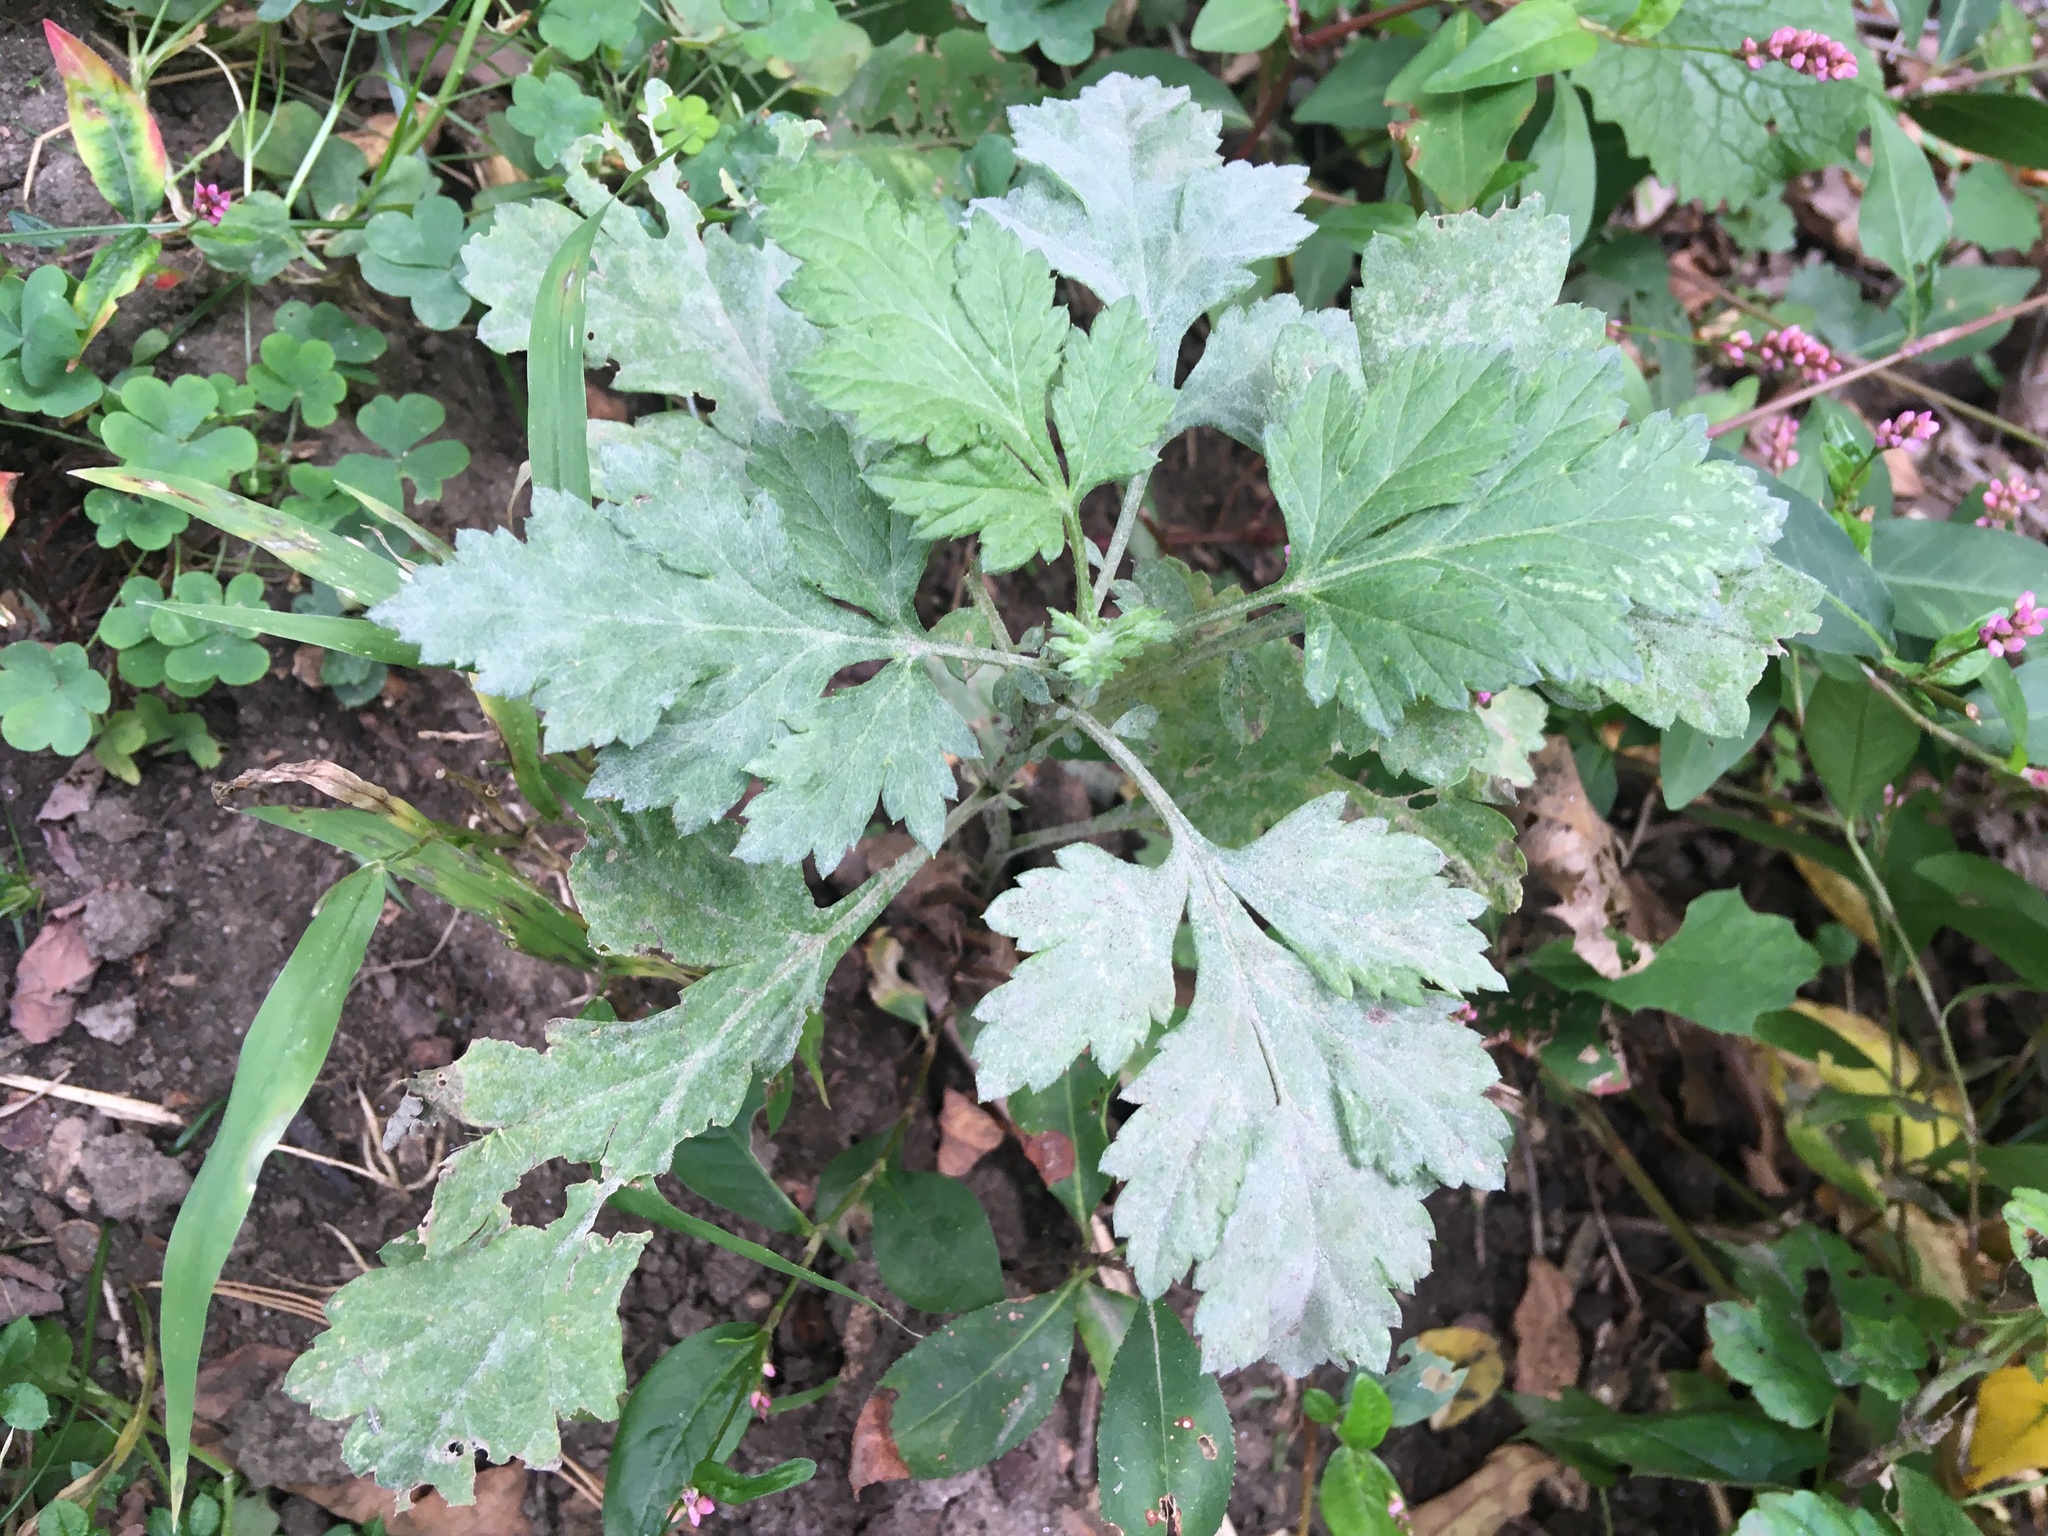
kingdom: Plantae
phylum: Tracheophyta
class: Magnoliopsida
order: Asterales
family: Asteraceae
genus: Artemisia
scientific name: Artemisia vulgaris
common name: Mugwort
